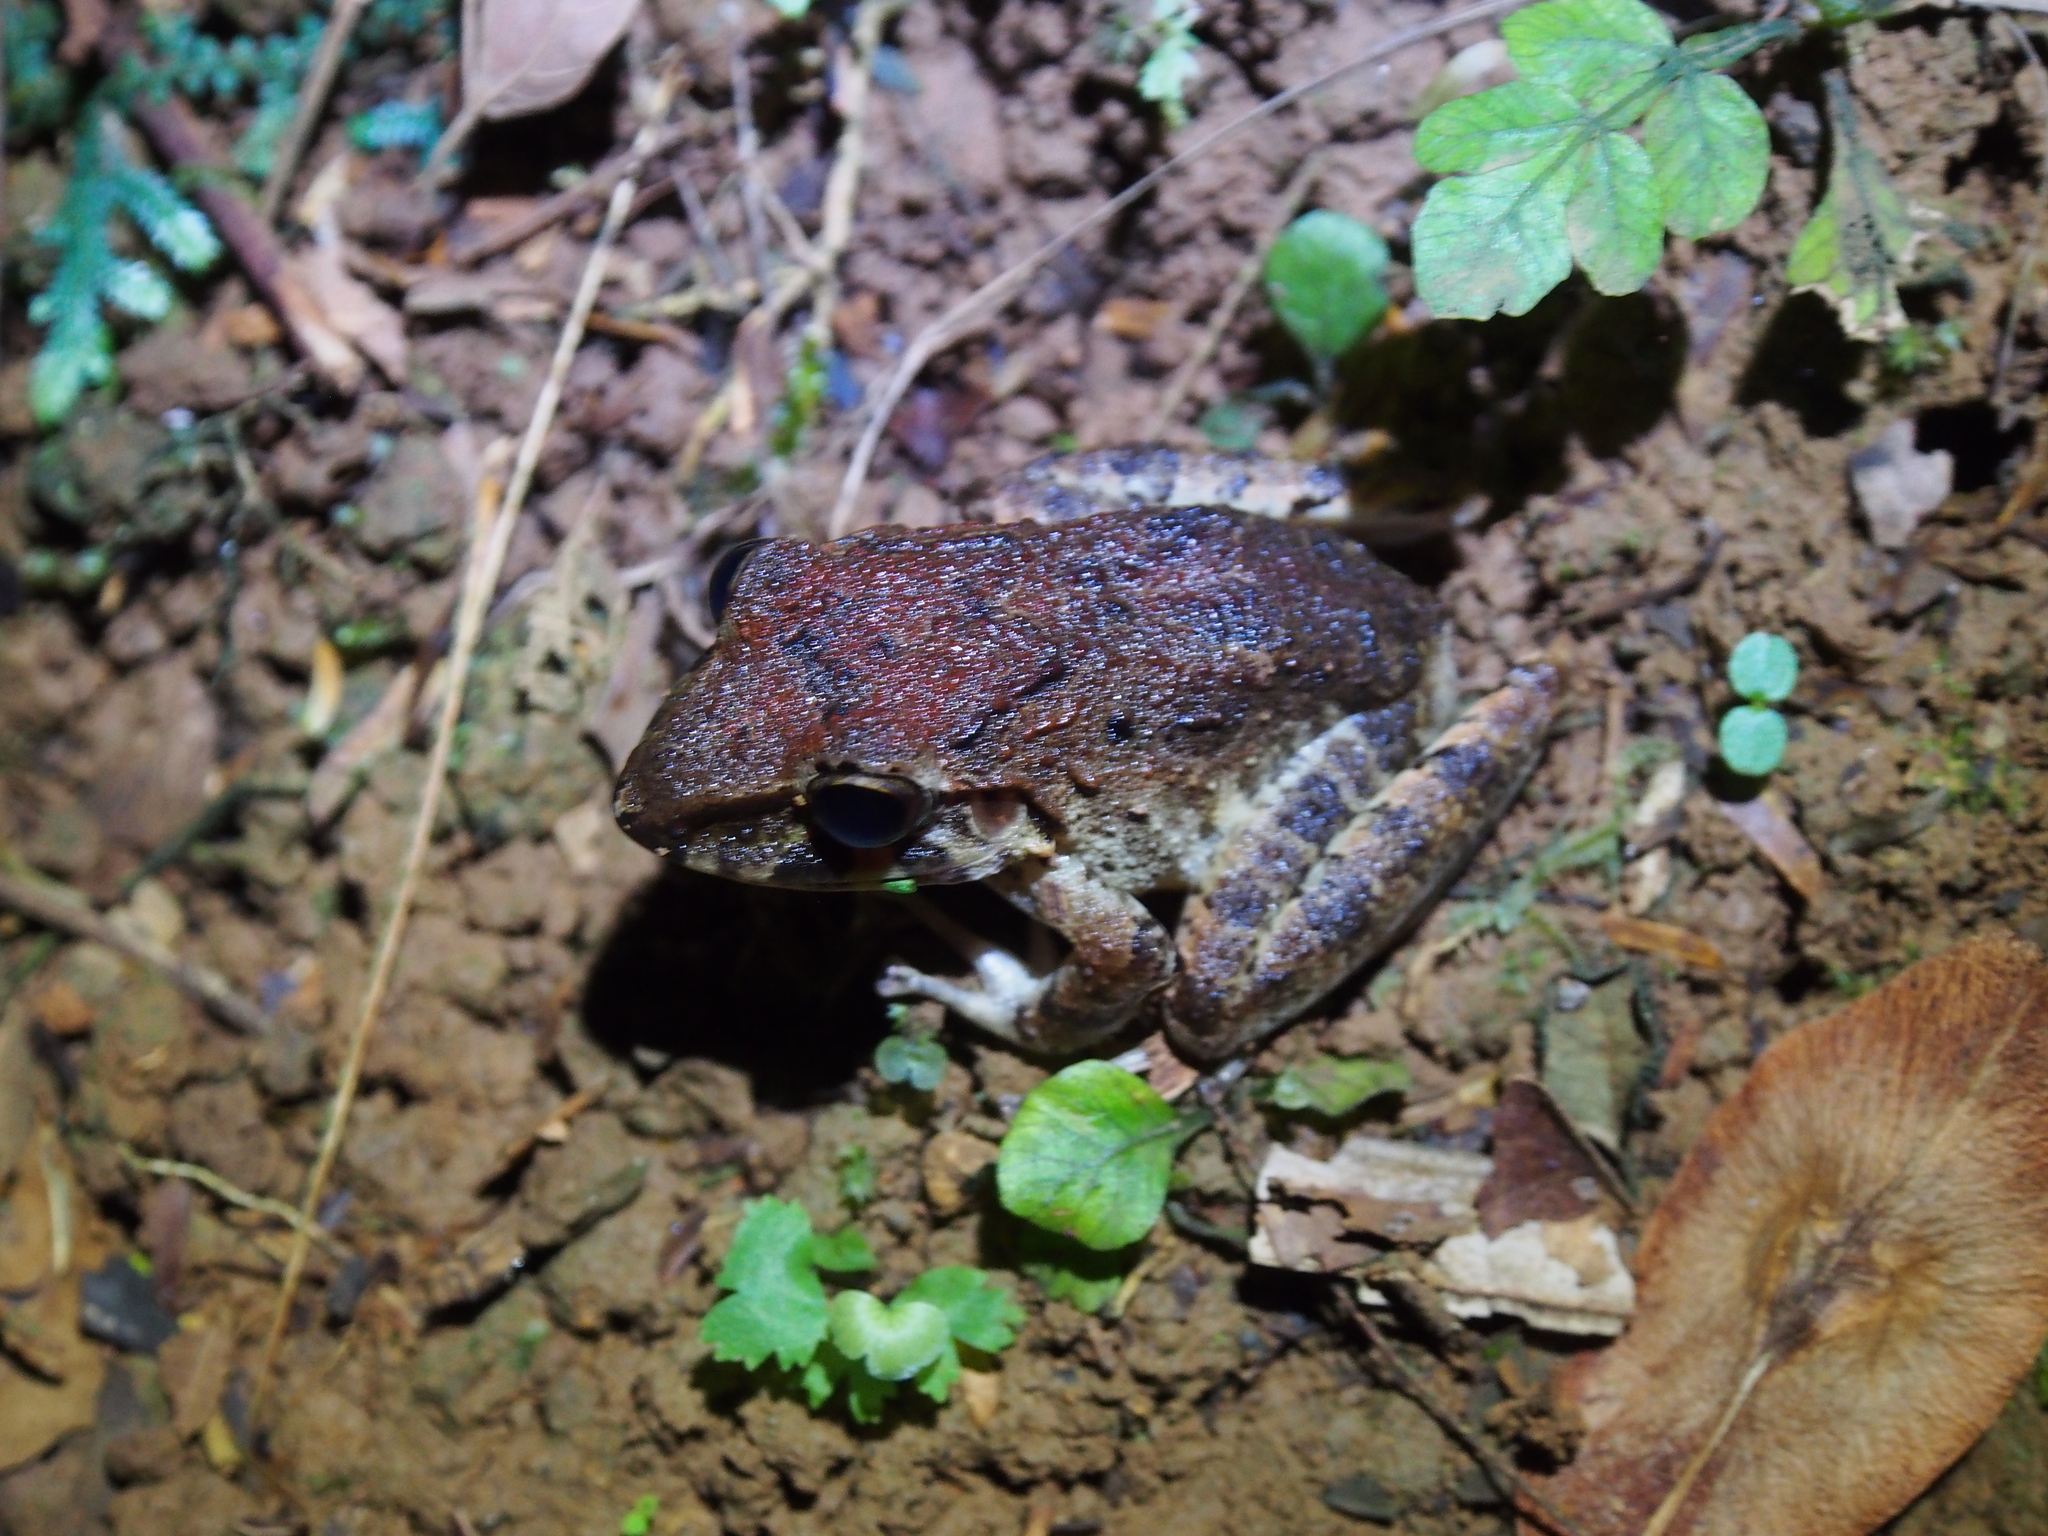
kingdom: Animalia
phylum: Chordata
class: Amphibia
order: Anura
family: Craugastoridae
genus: Craugastor
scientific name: Craugastor bransfordii
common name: Bransford's robber frog
